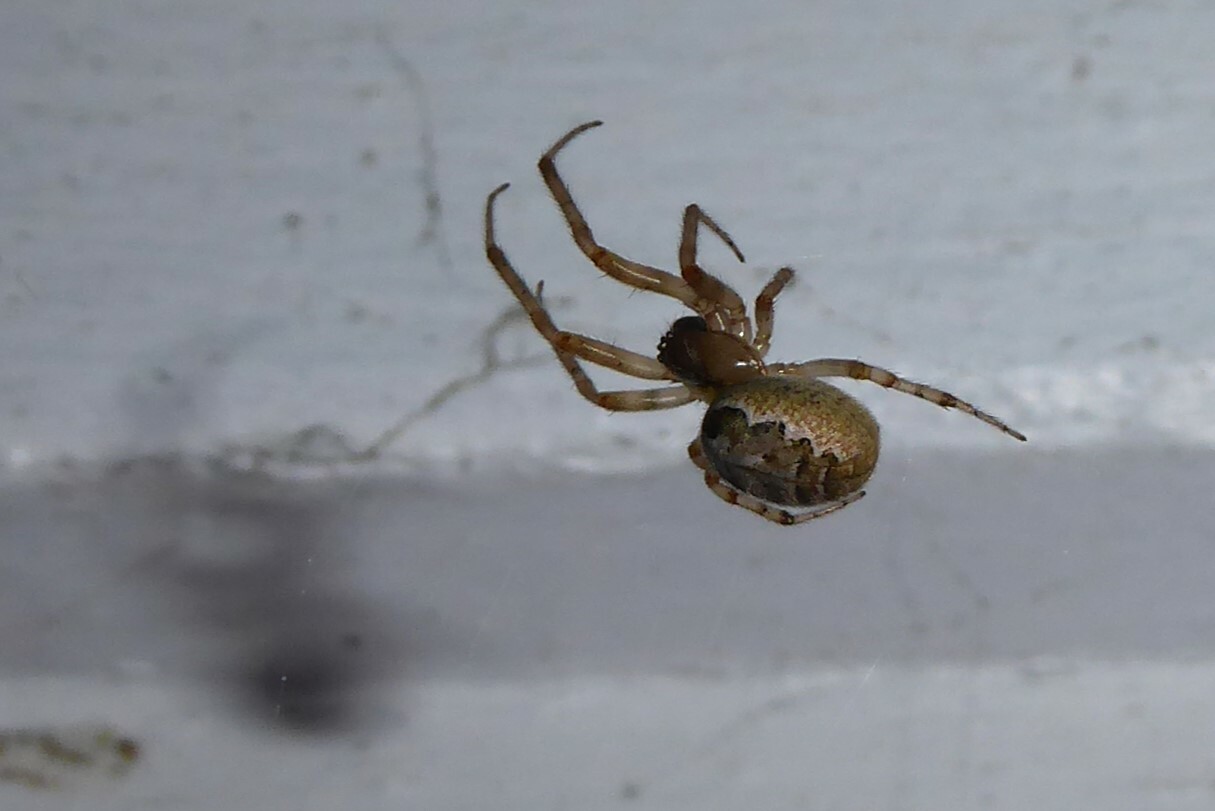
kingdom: Animalia
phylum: Arthropoda
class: Arachnida
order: Araneae
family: Araneidae
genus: Zygiella
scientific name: Zygiella x-notata
